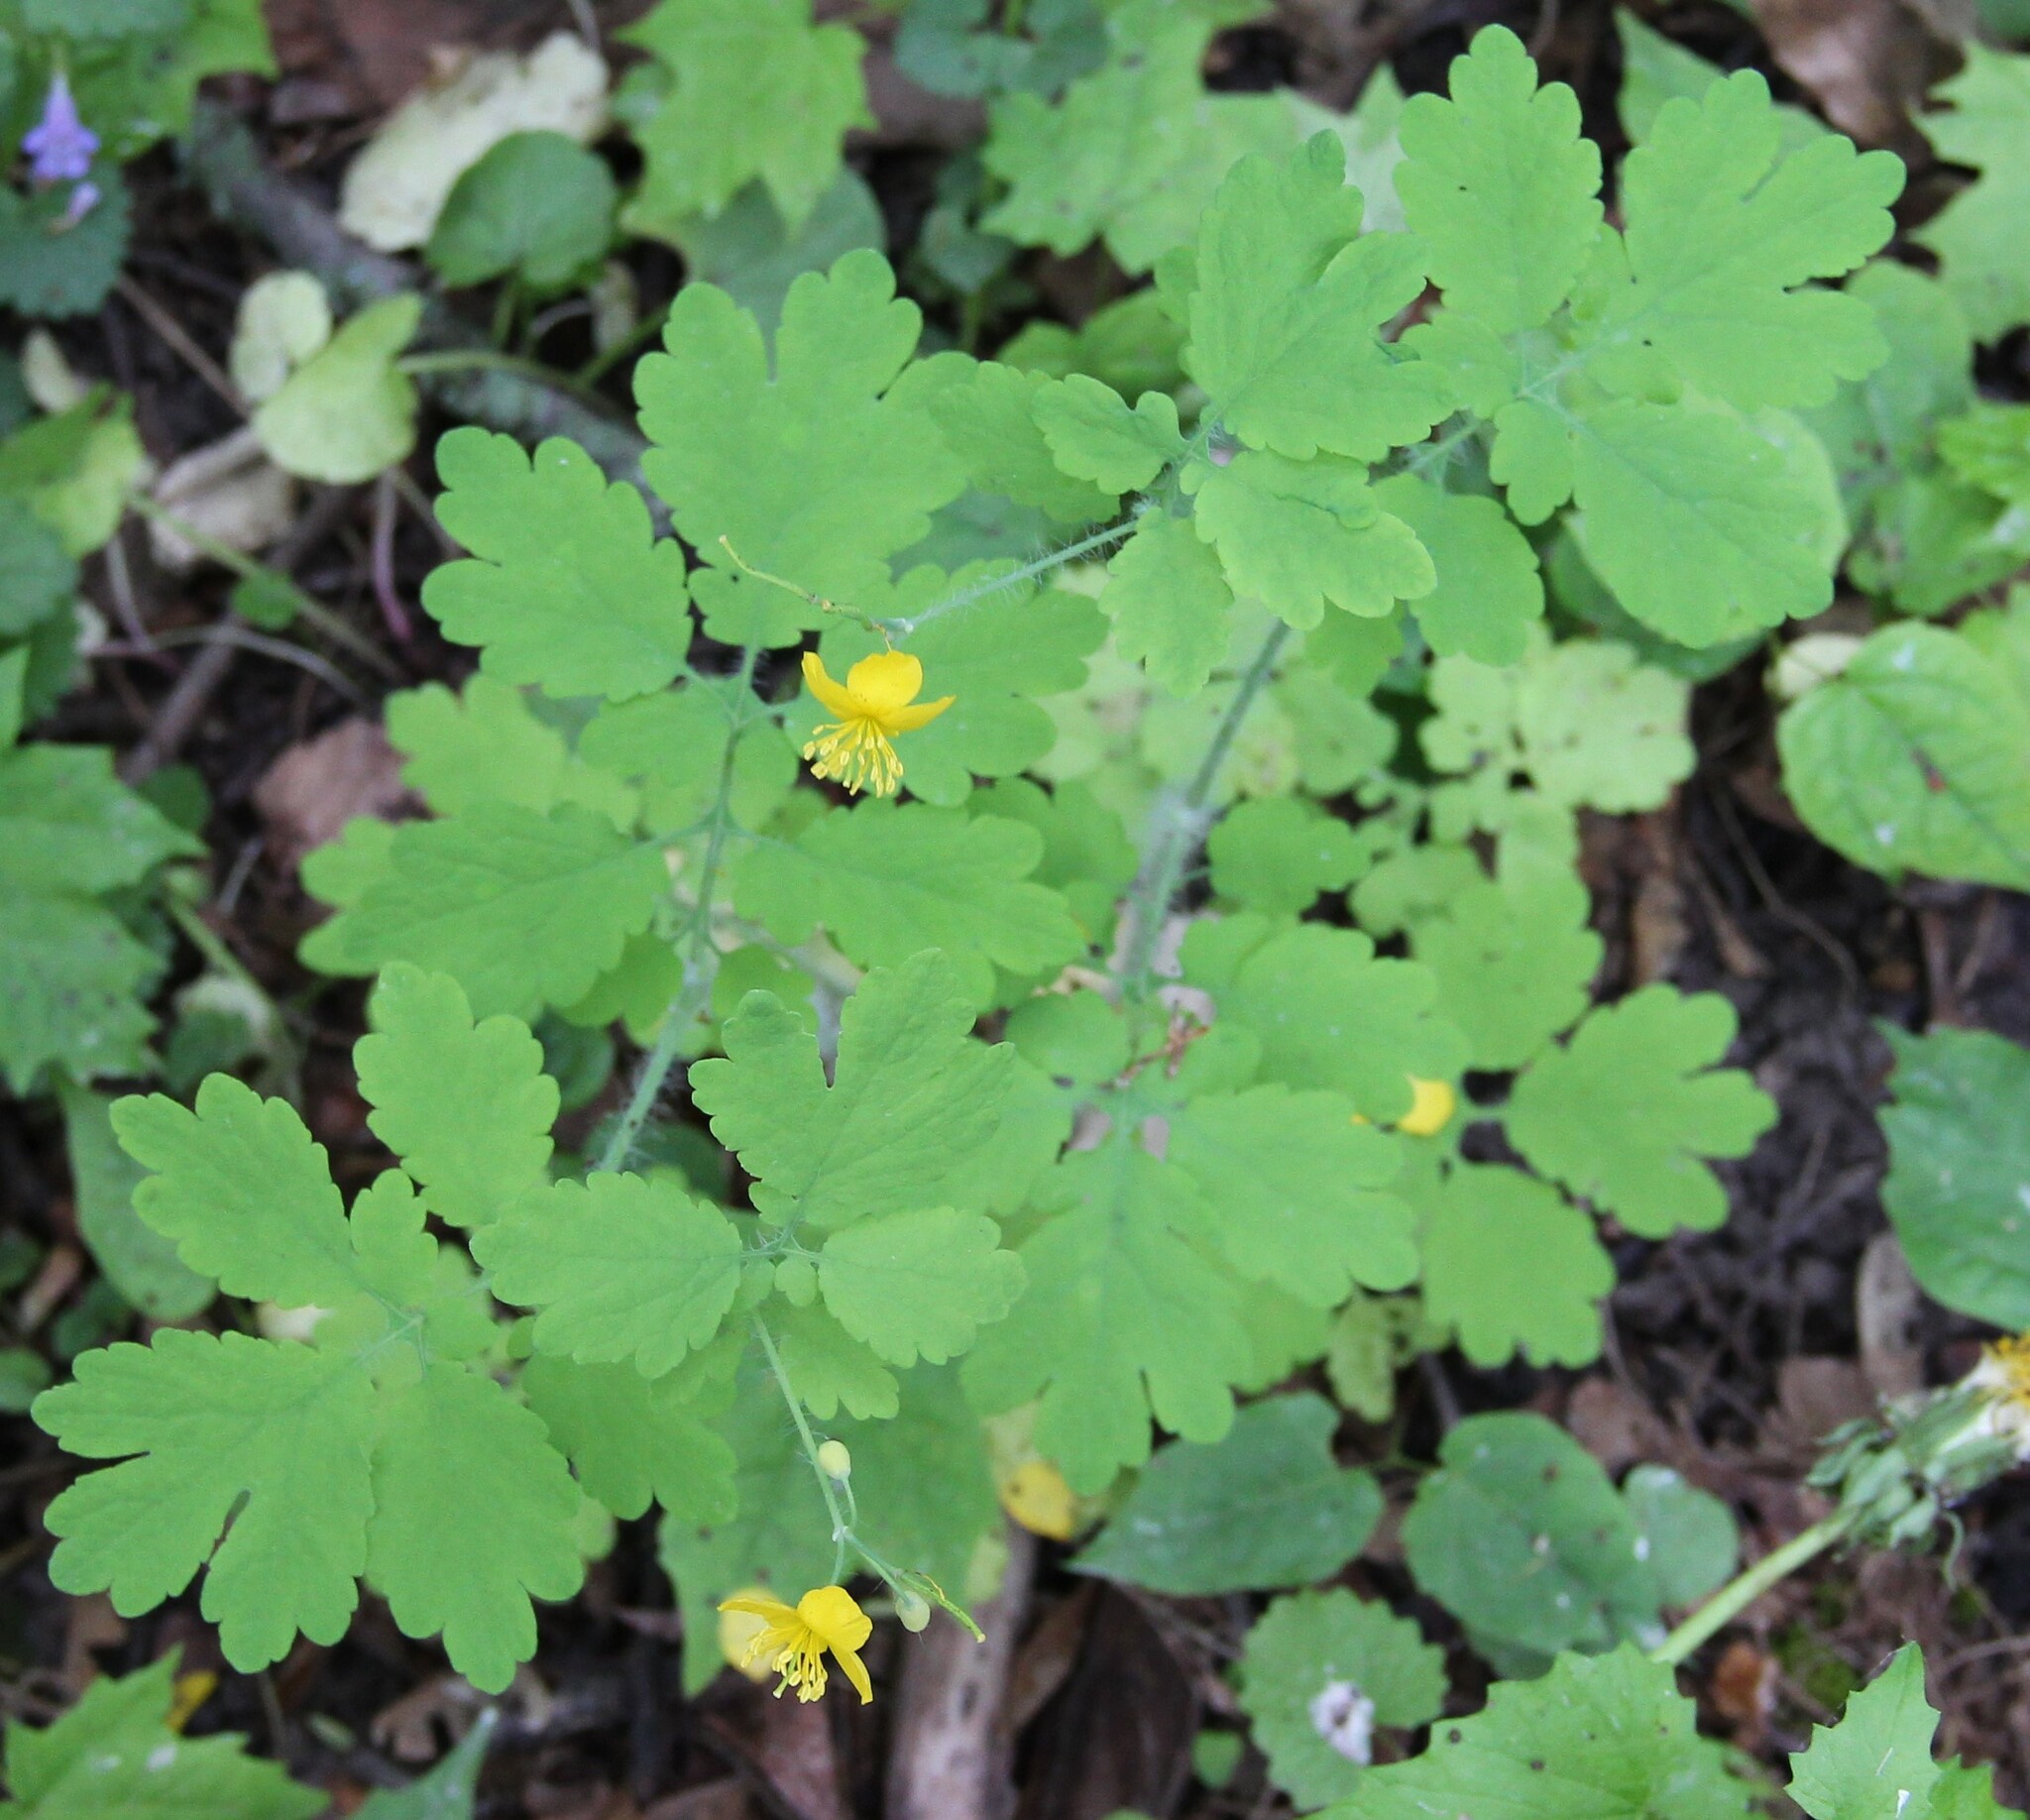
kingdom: Plantae
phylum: Tracheophyta
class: Magnoliopsida
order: Ranunculales
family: Papaveraceae
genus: Chelidonium
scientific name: Chelidonium majus
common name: Greater celandine
